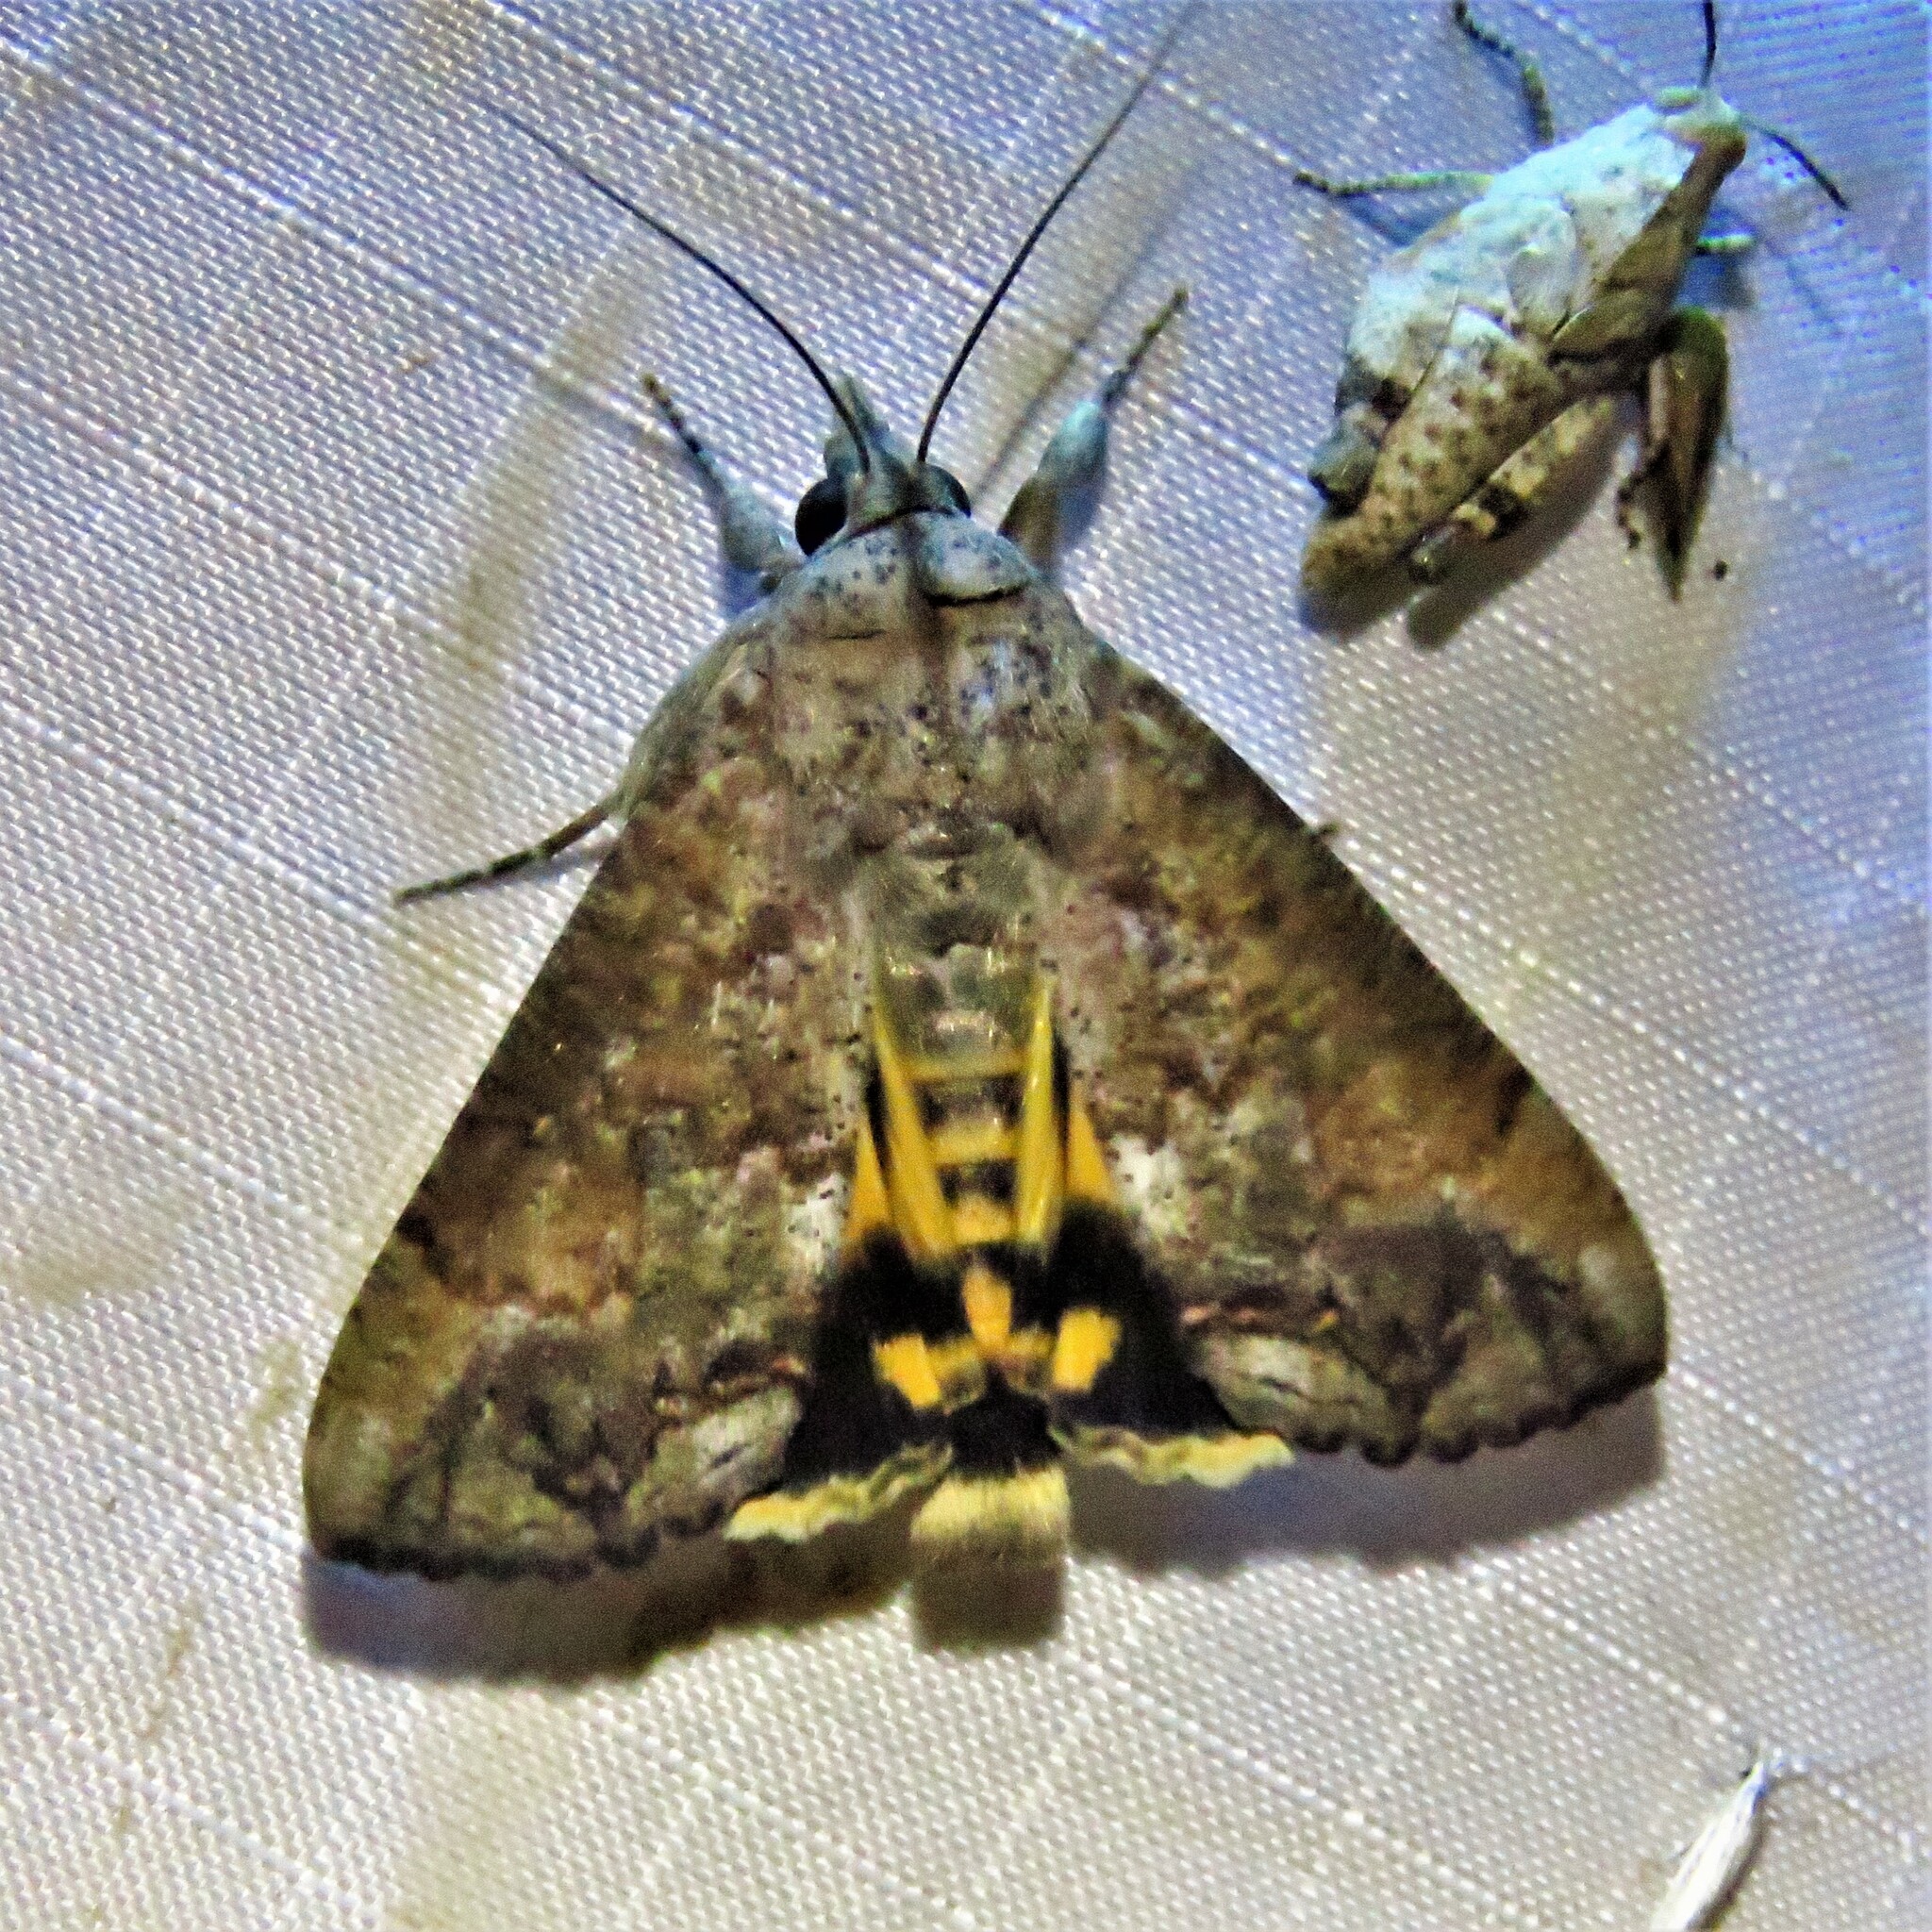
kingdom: Animalia
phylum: Arthropoda
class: Insecta
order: Lepidoptera
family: Erebidae
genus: Hypocala
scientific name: Hypocala andremona
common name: Hypocala moth
